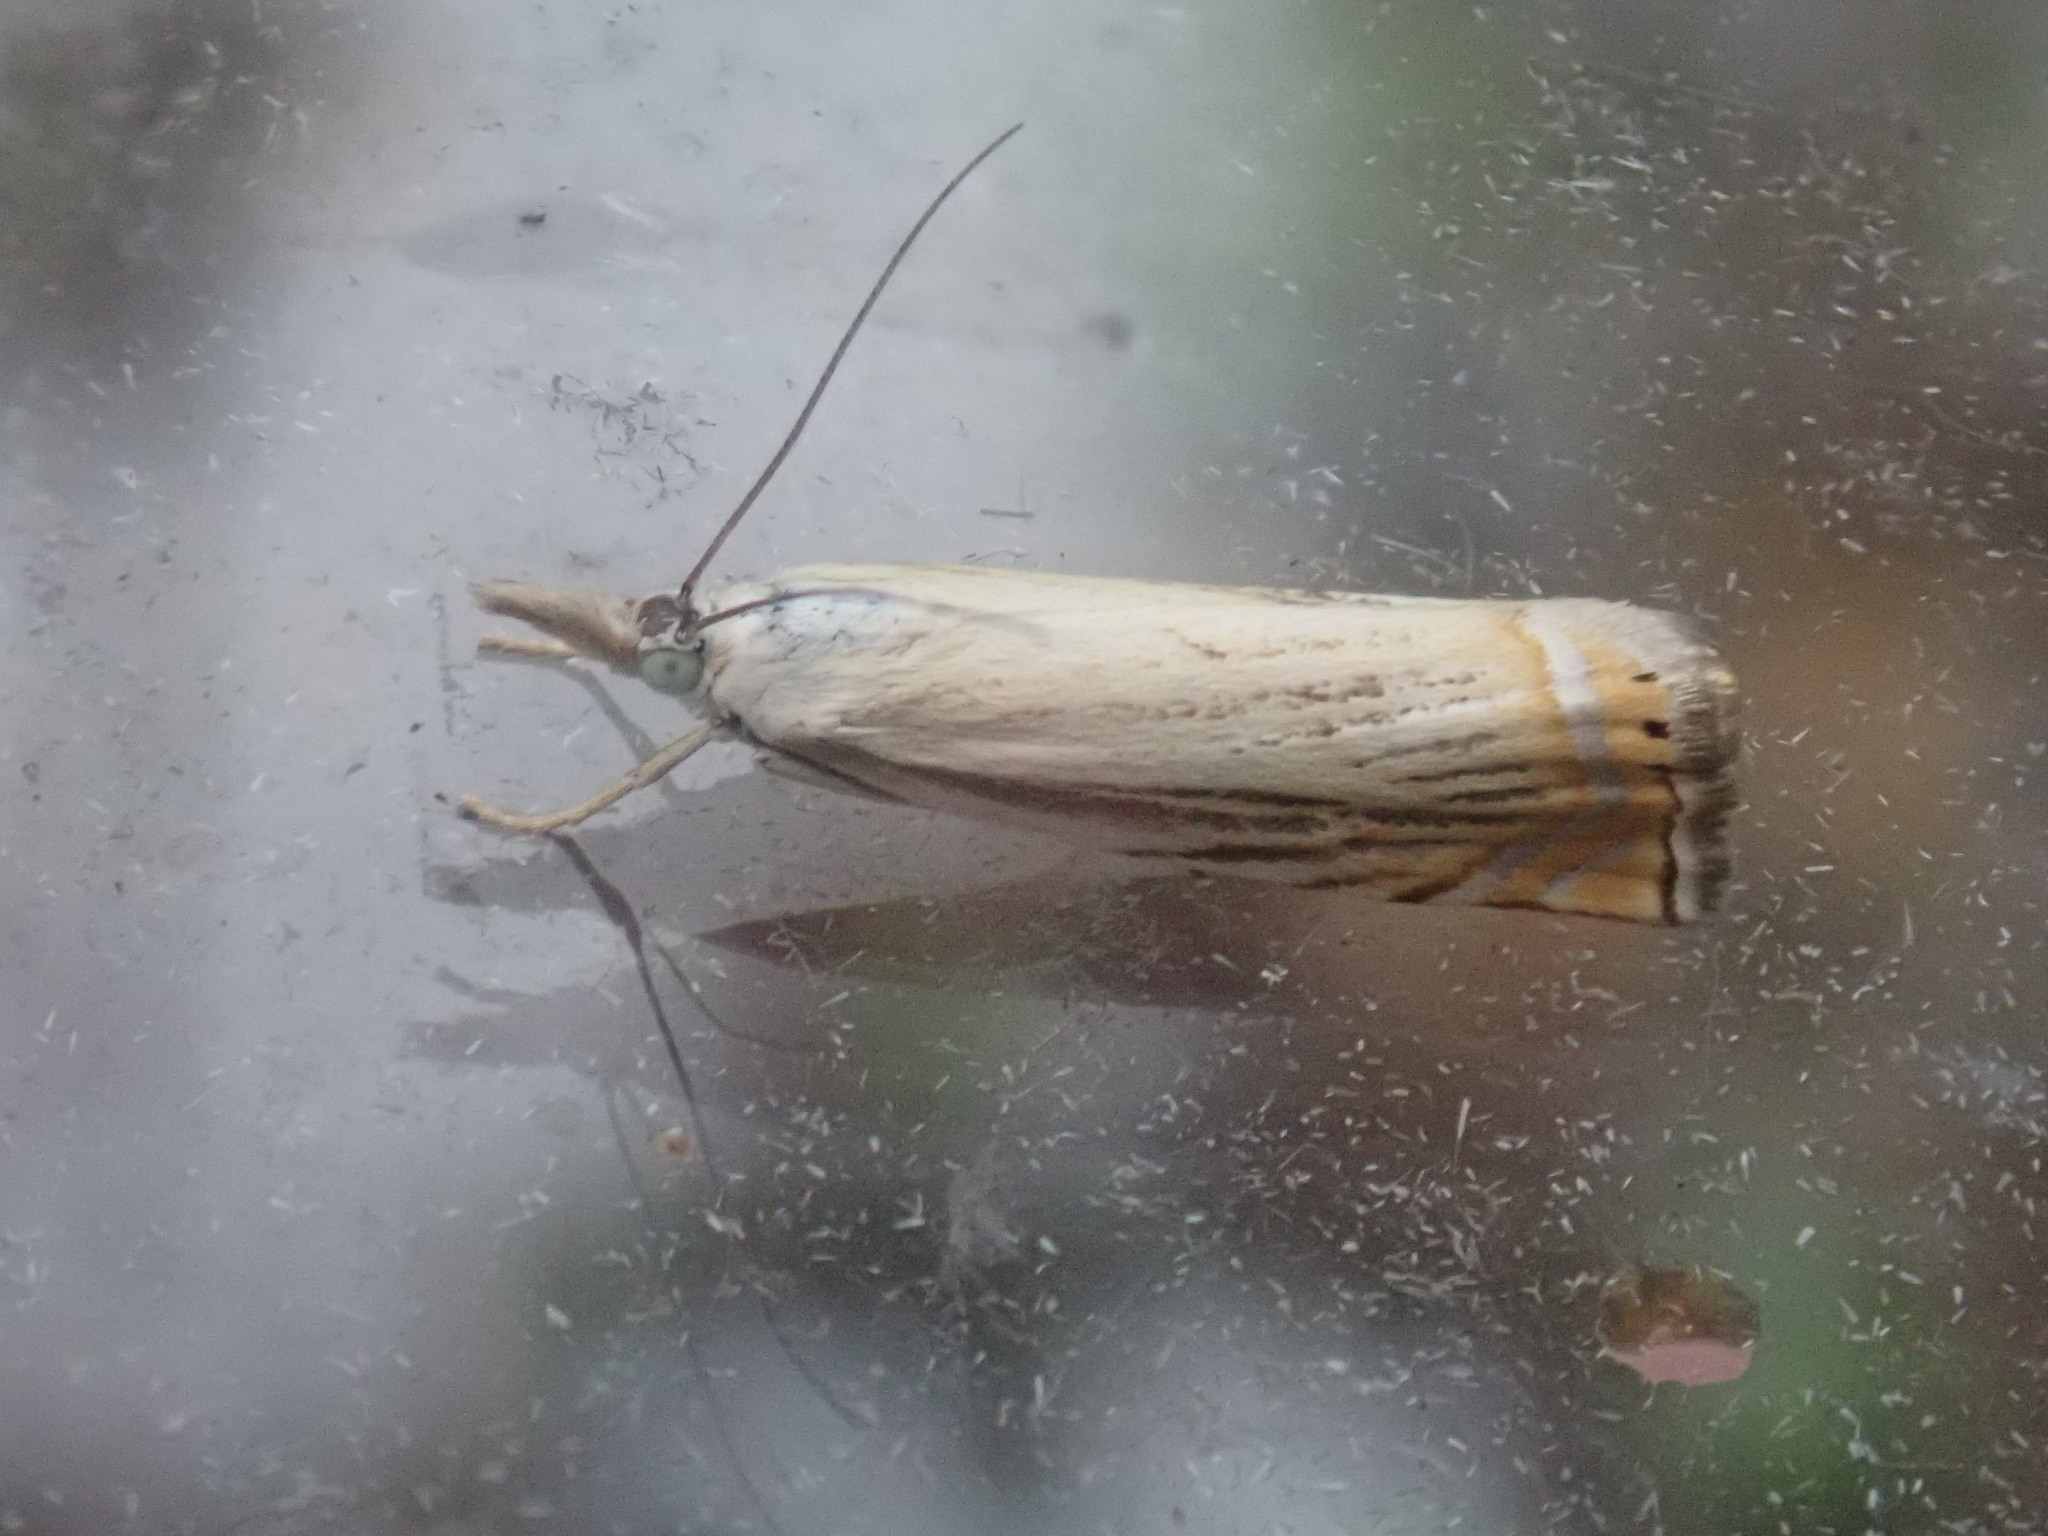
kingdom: Animalia
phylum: Arthropoda
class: Insecta
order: Lepidoptera
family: Crambidae
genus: Chrysoteuchia
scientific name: Chrysoteuchia topiarius
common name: Topiary grass-veneer
